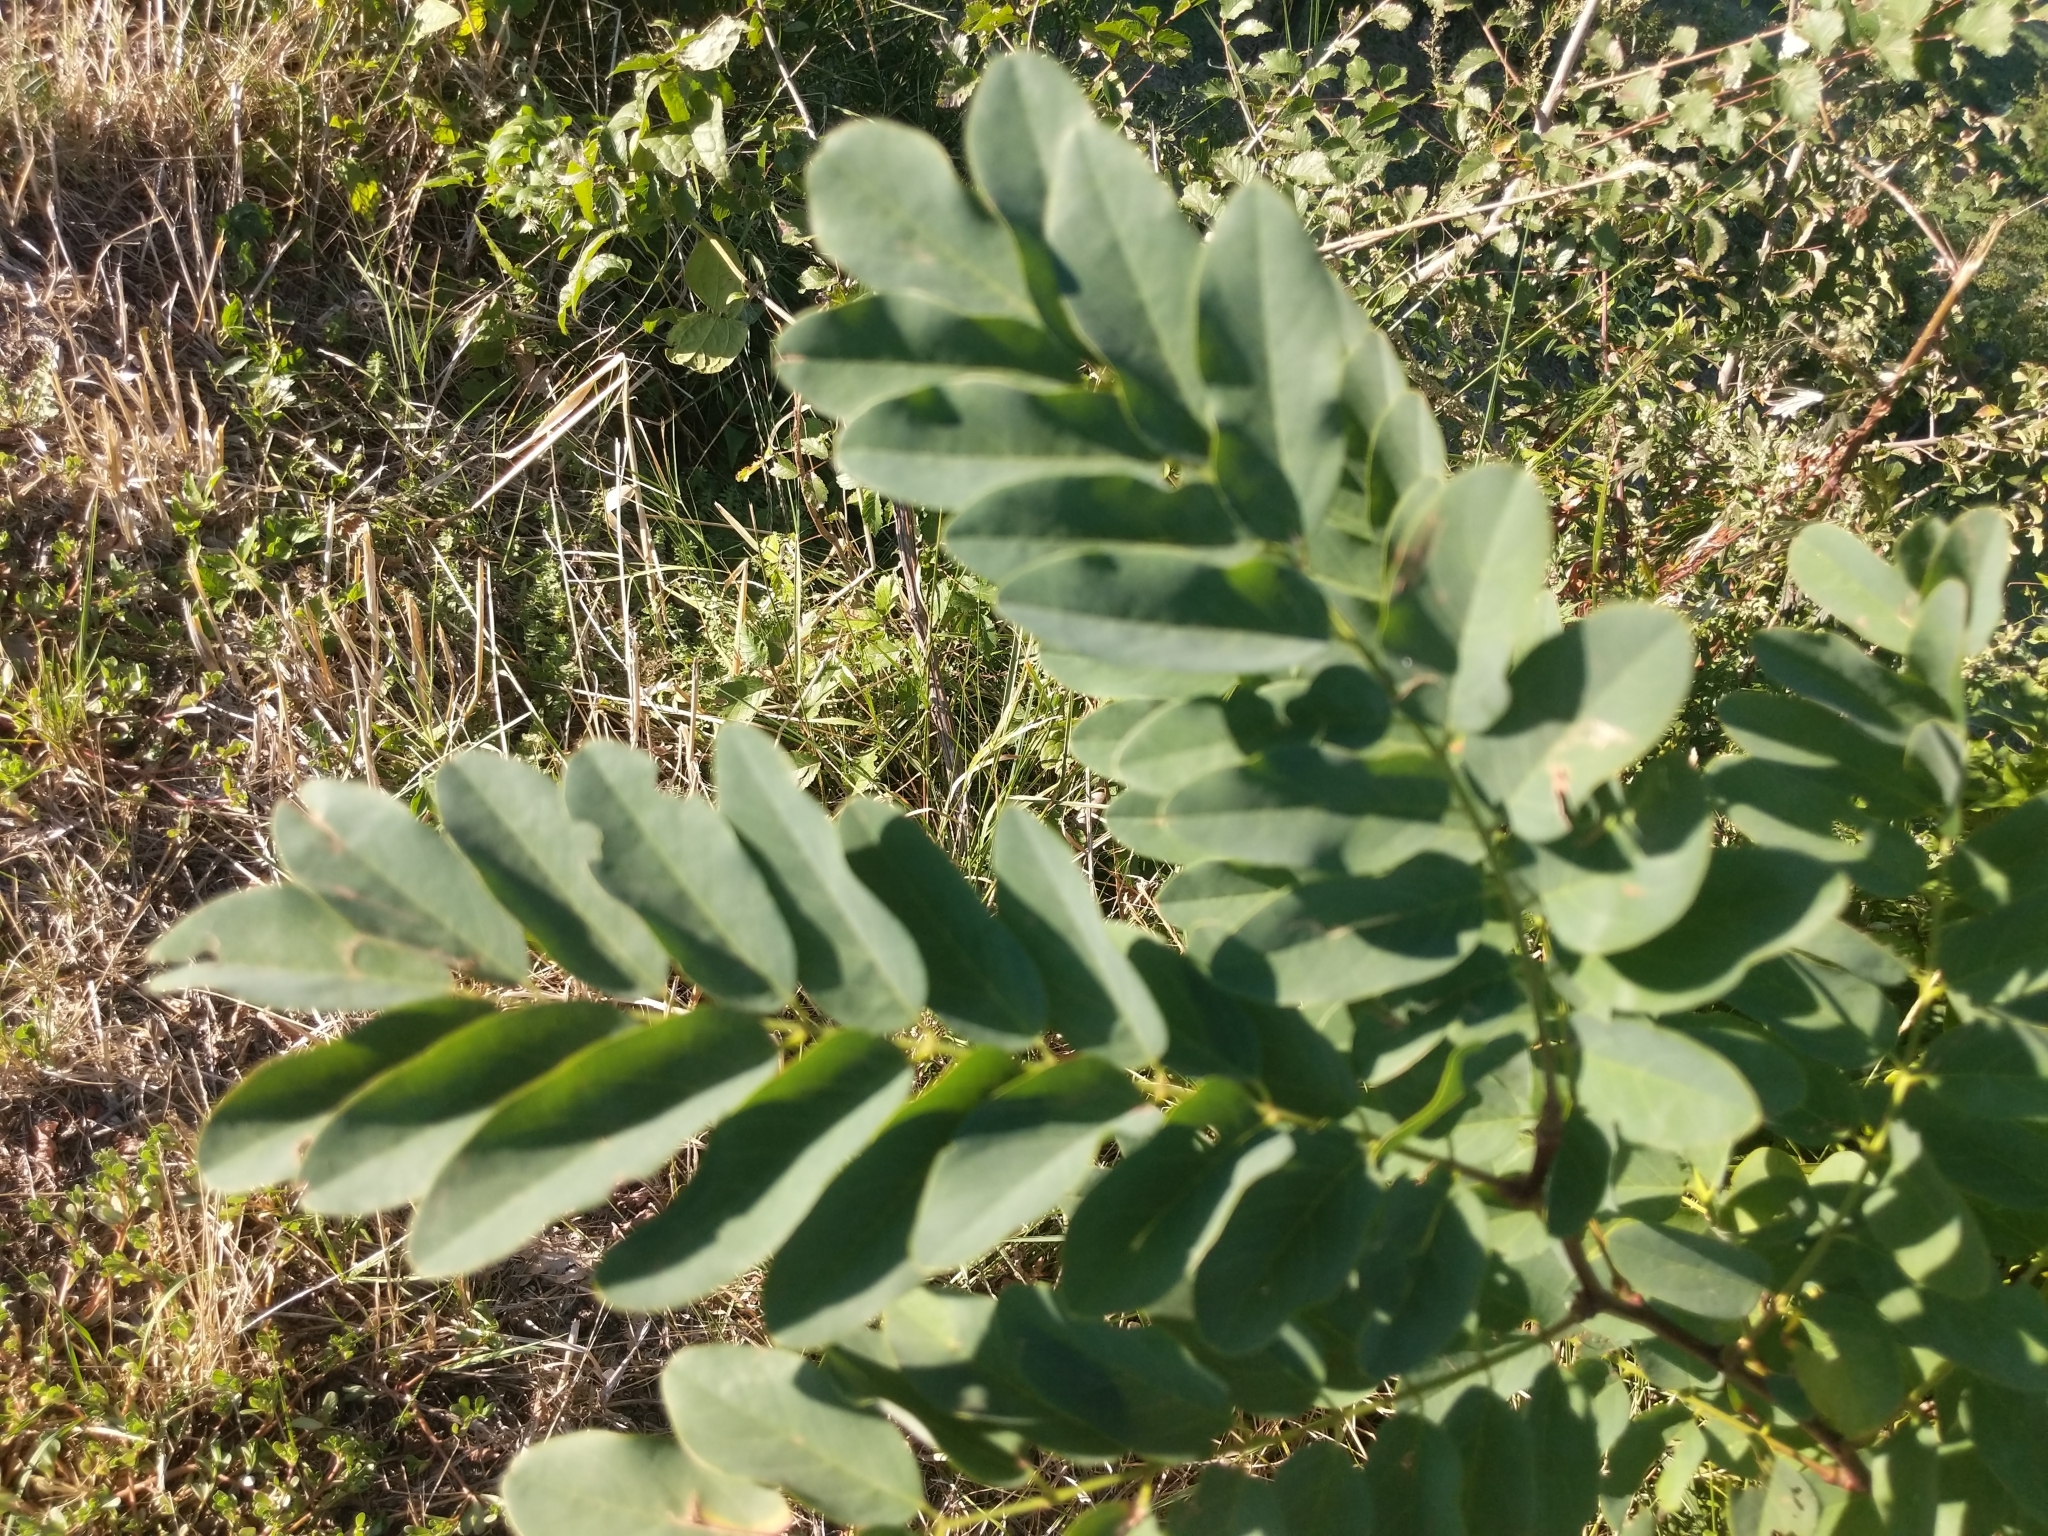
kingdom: Plantae
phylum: Tracheophyta
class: Magnoliopsida
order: Fabales
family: Fabaceae
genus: Robinia
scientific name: Robinia pseudoacacia
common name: Black locust
